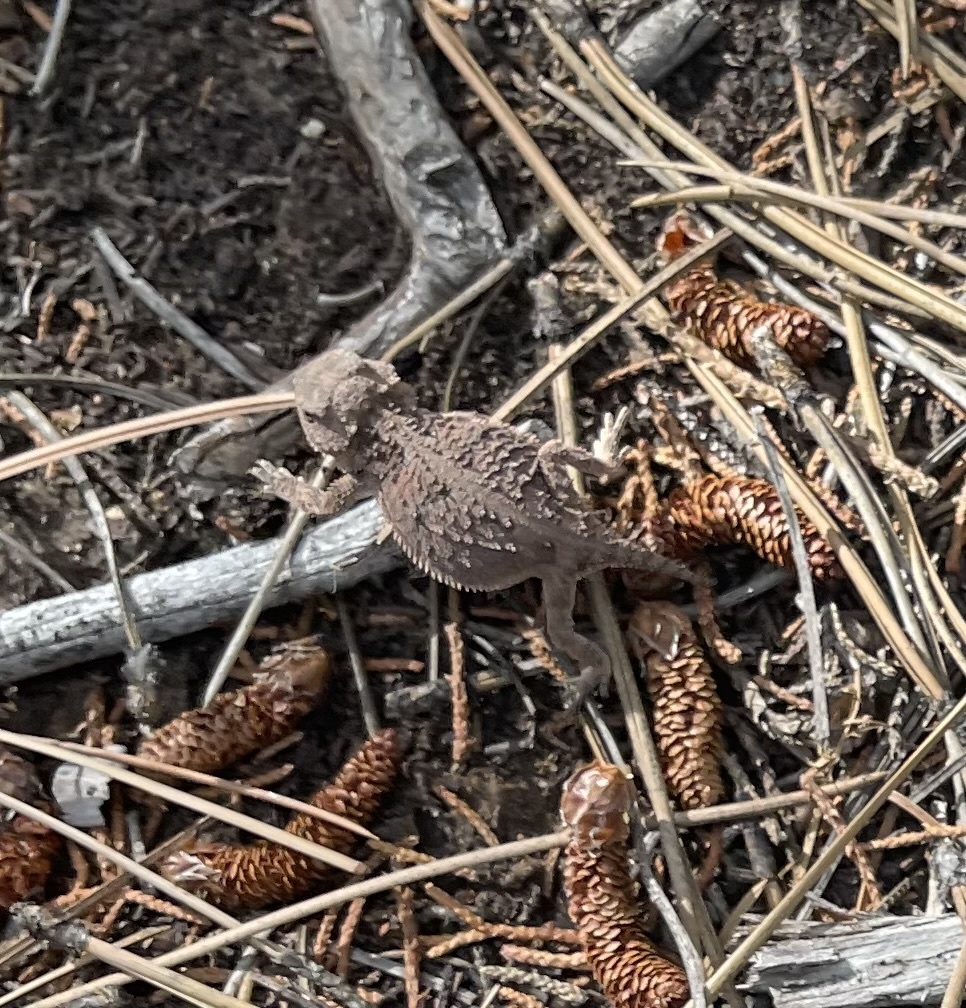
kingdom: Animalia
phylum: Chordata
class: Squamata
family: Phrynosomatidae
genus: Phrynosoma
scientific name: Phrynosoma hernandesi
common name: Greater short-horned lizard
